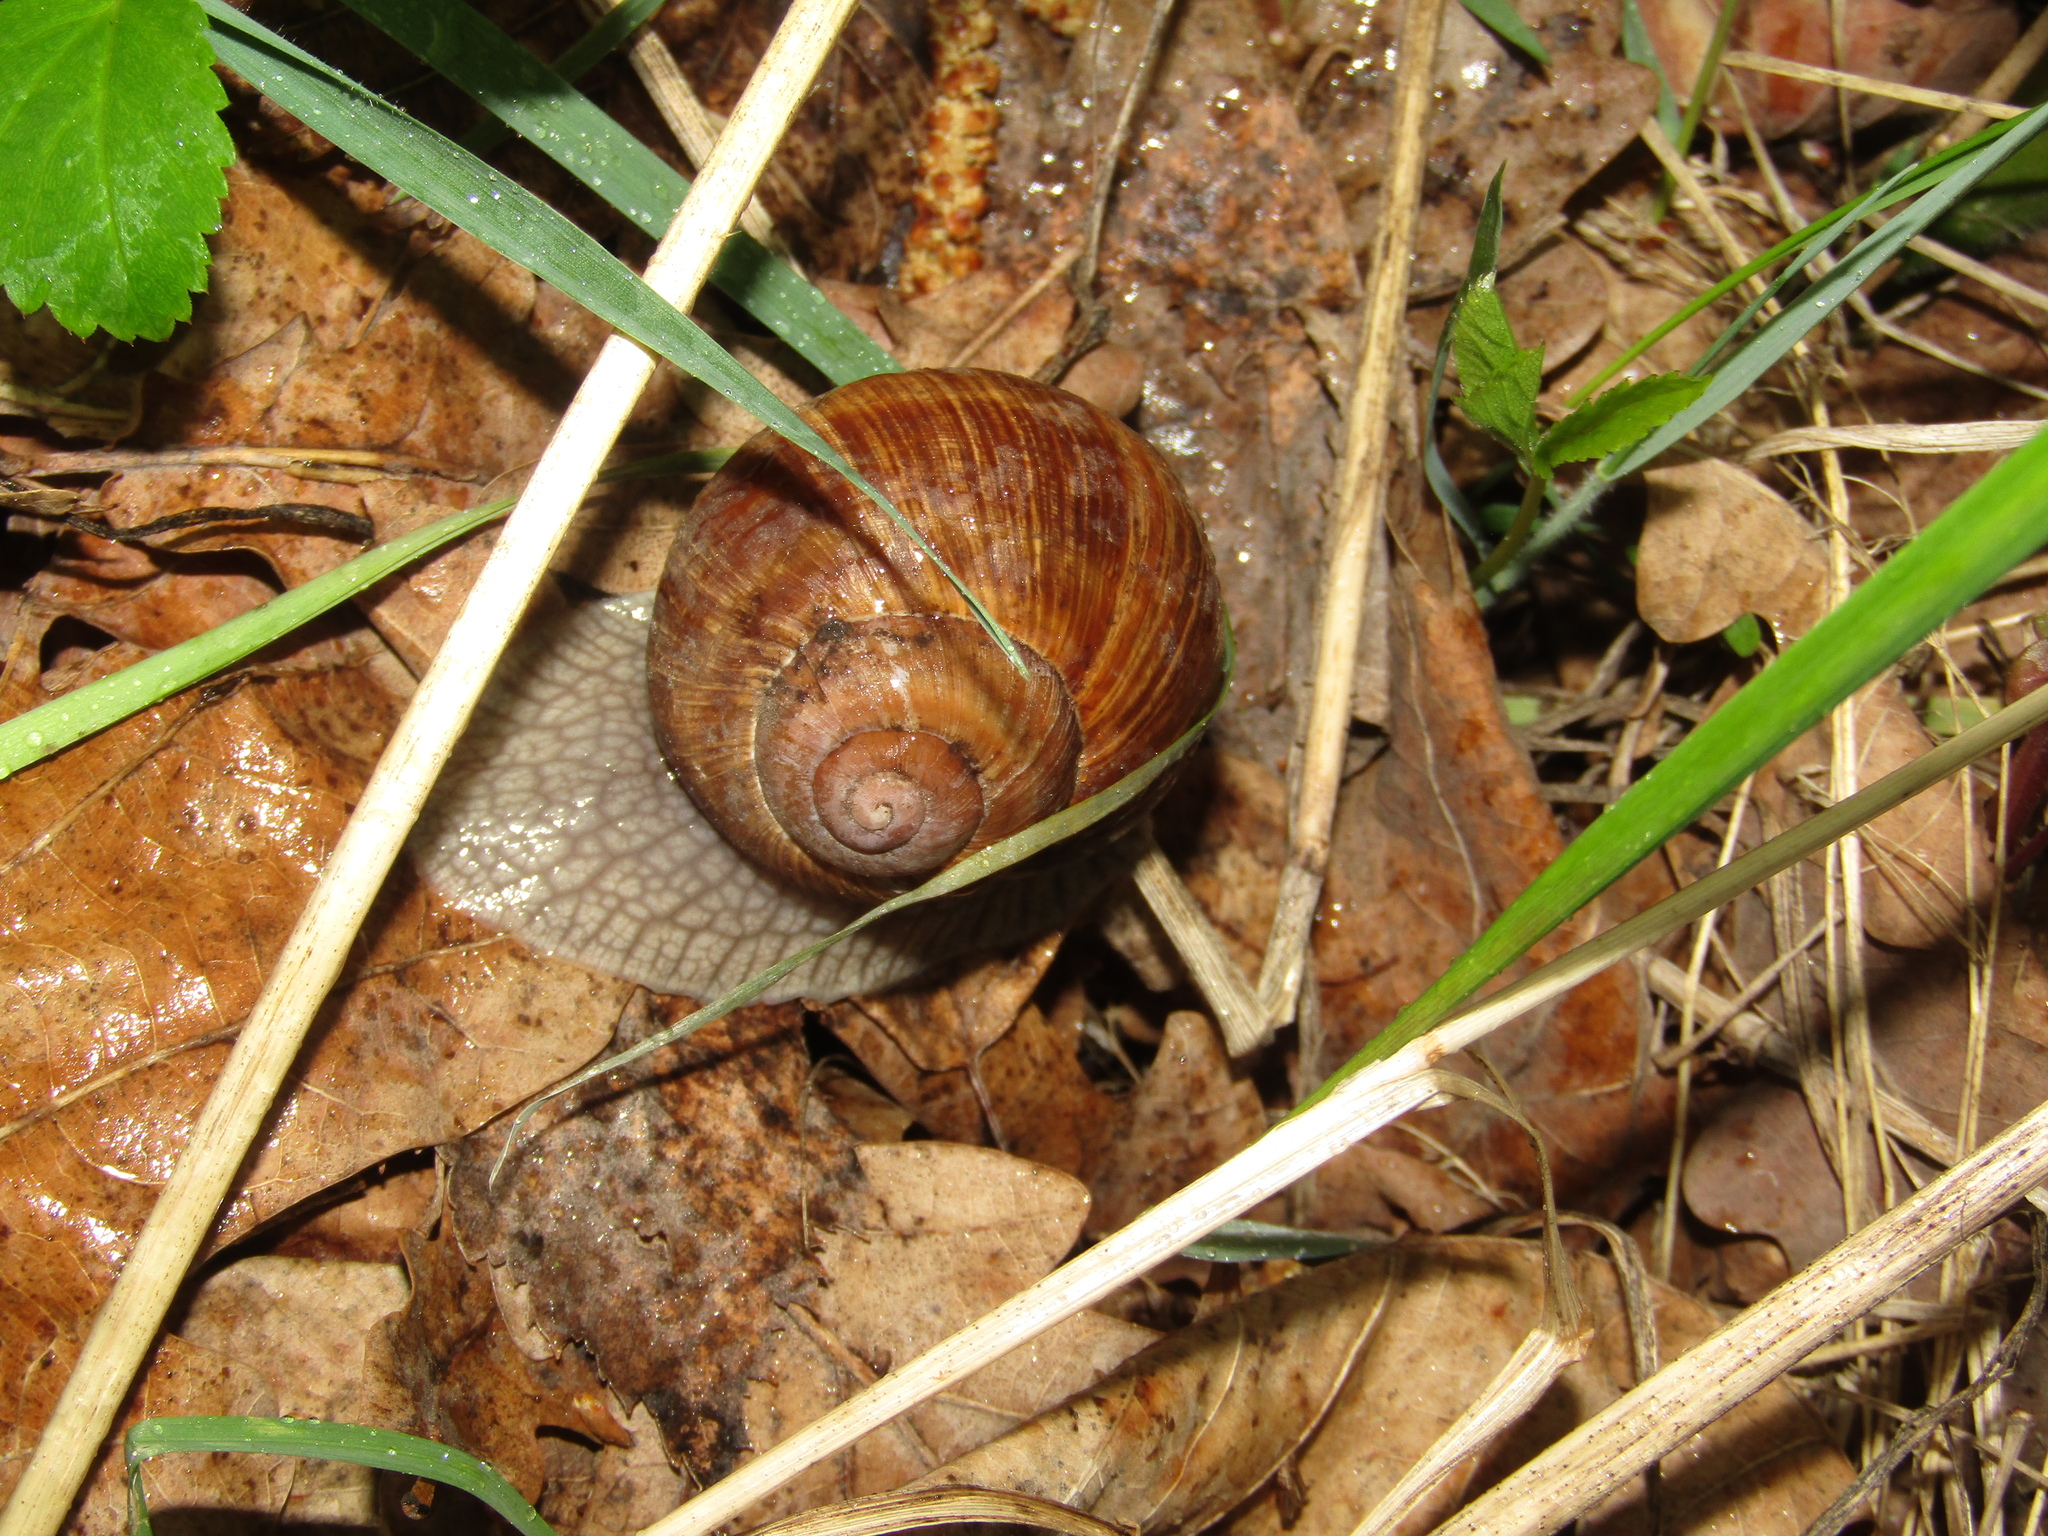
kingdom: Animalia
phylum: Mollusca
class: Gastropoda
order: Stylommatophora
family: Helicidae
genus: Helix
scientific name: Helix pomatia
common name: Roman snail
